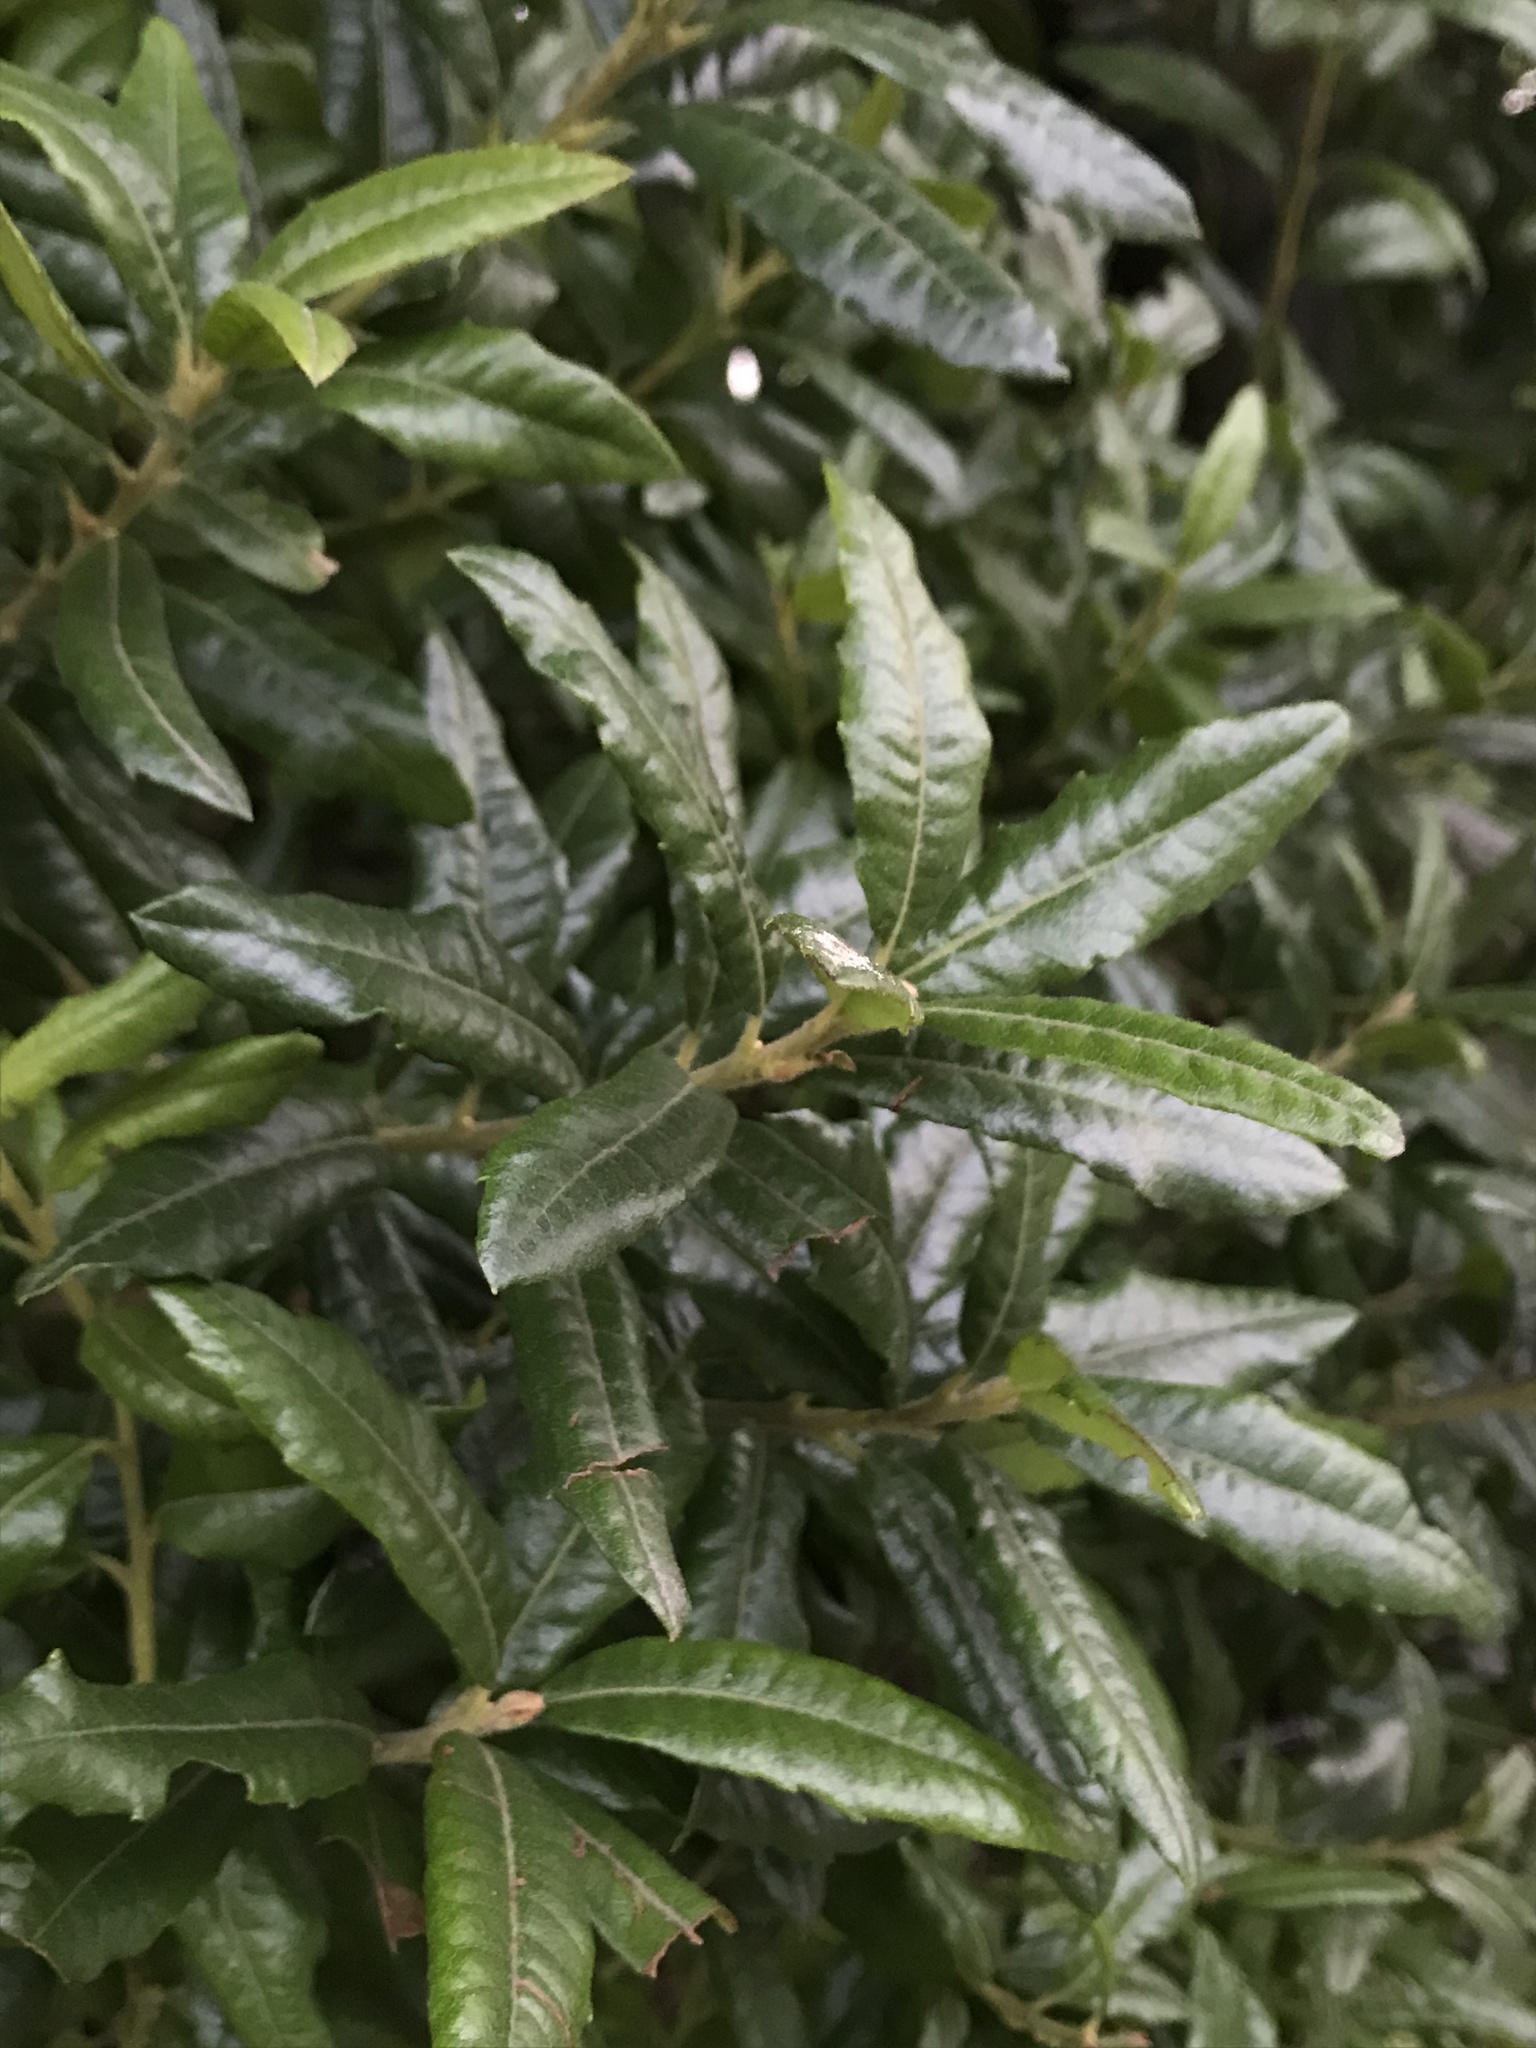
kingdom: Plantae
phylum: Tracheophyta
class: Magnoliopsida
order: Fagales
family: Myricaceae
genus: Morella
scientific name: Morella pubescens
